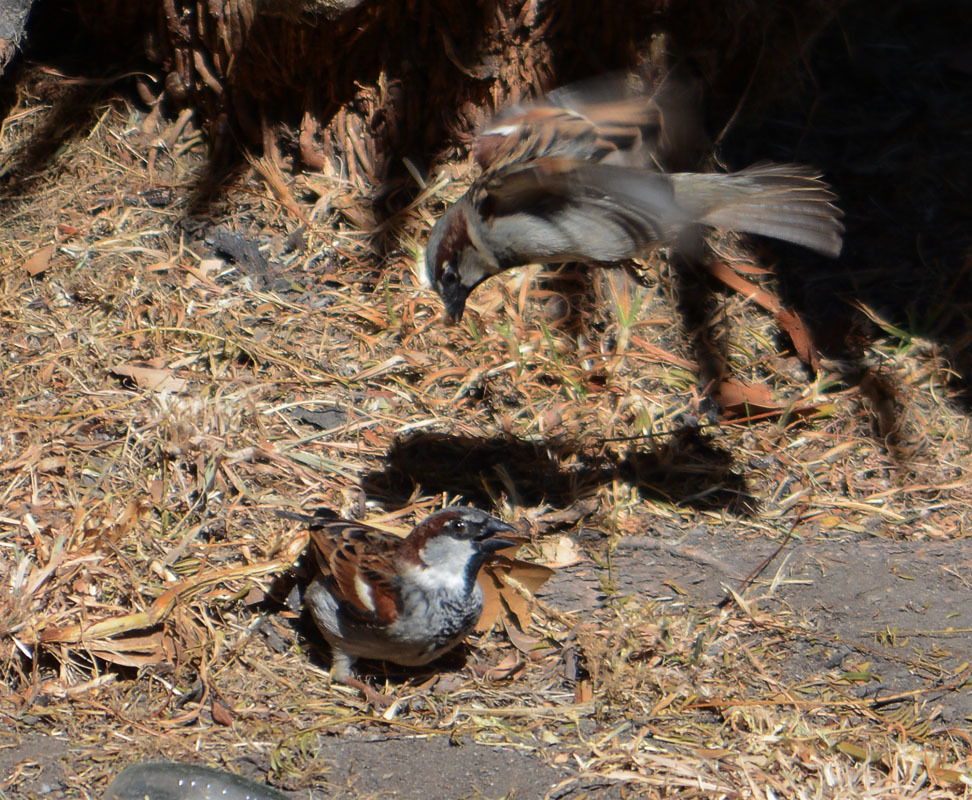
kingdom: Animalia
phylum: Chordata
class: Aves
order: Passeriformes
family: Passeridae
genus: Passer
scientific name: Passer domesticus
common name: House sparrow
